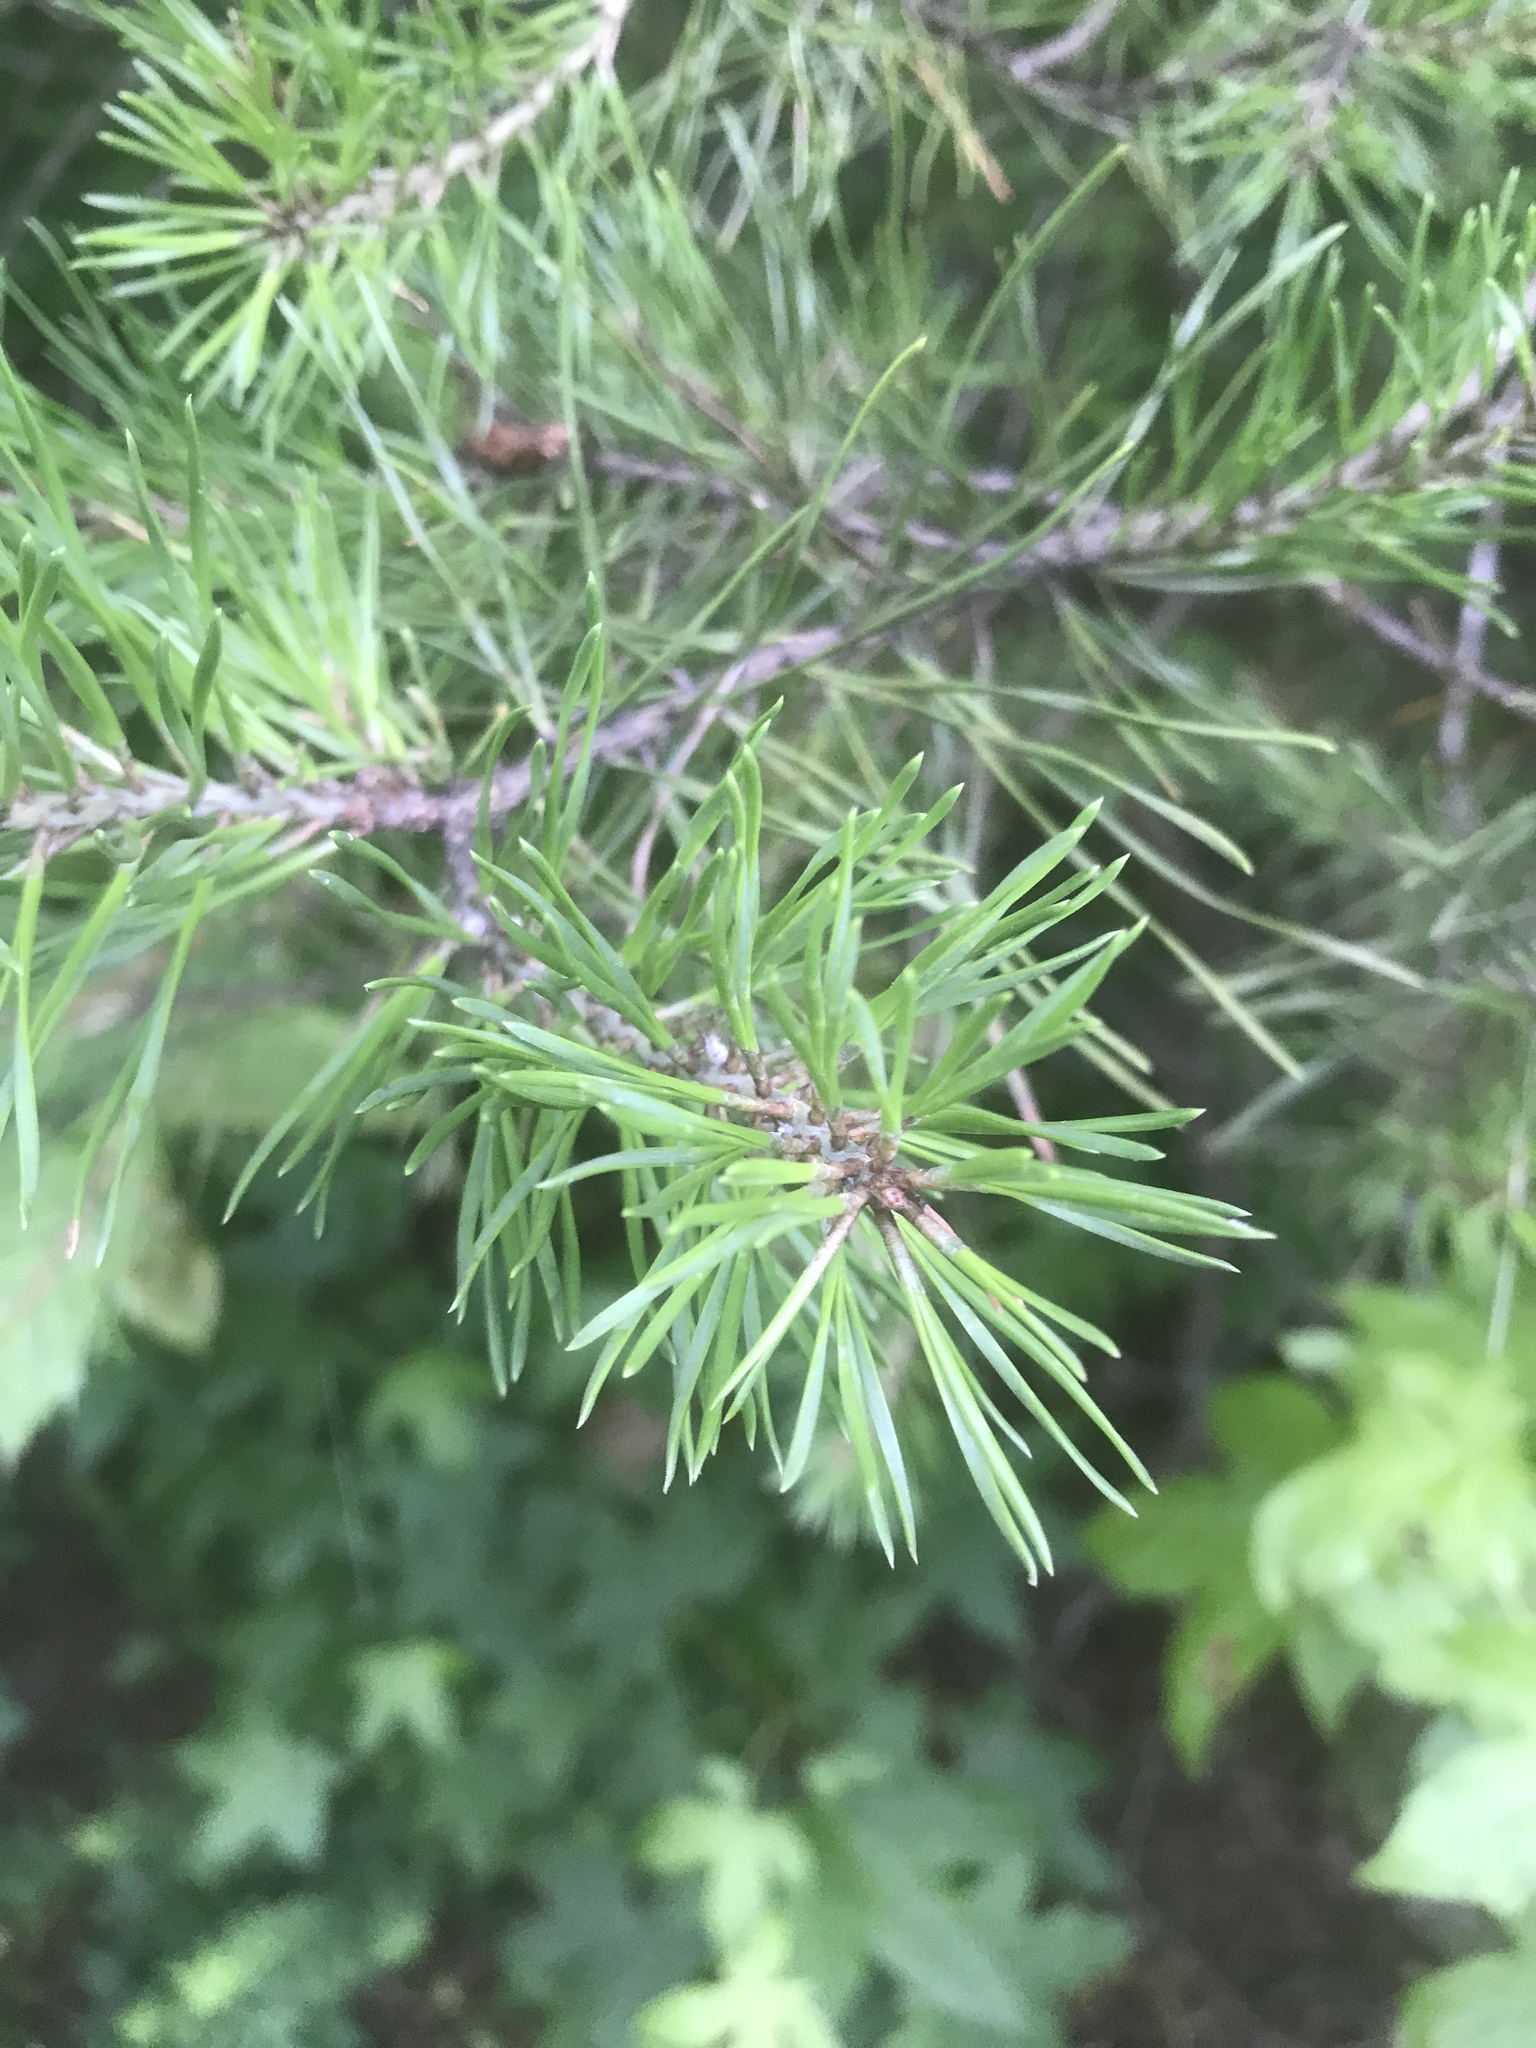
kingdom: Plantae
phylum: Tracheophyta
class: Pinopsida
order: Pinales
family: Pinaceae
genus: Pinus
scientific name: Pinus virginiana
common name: Scrub pine
